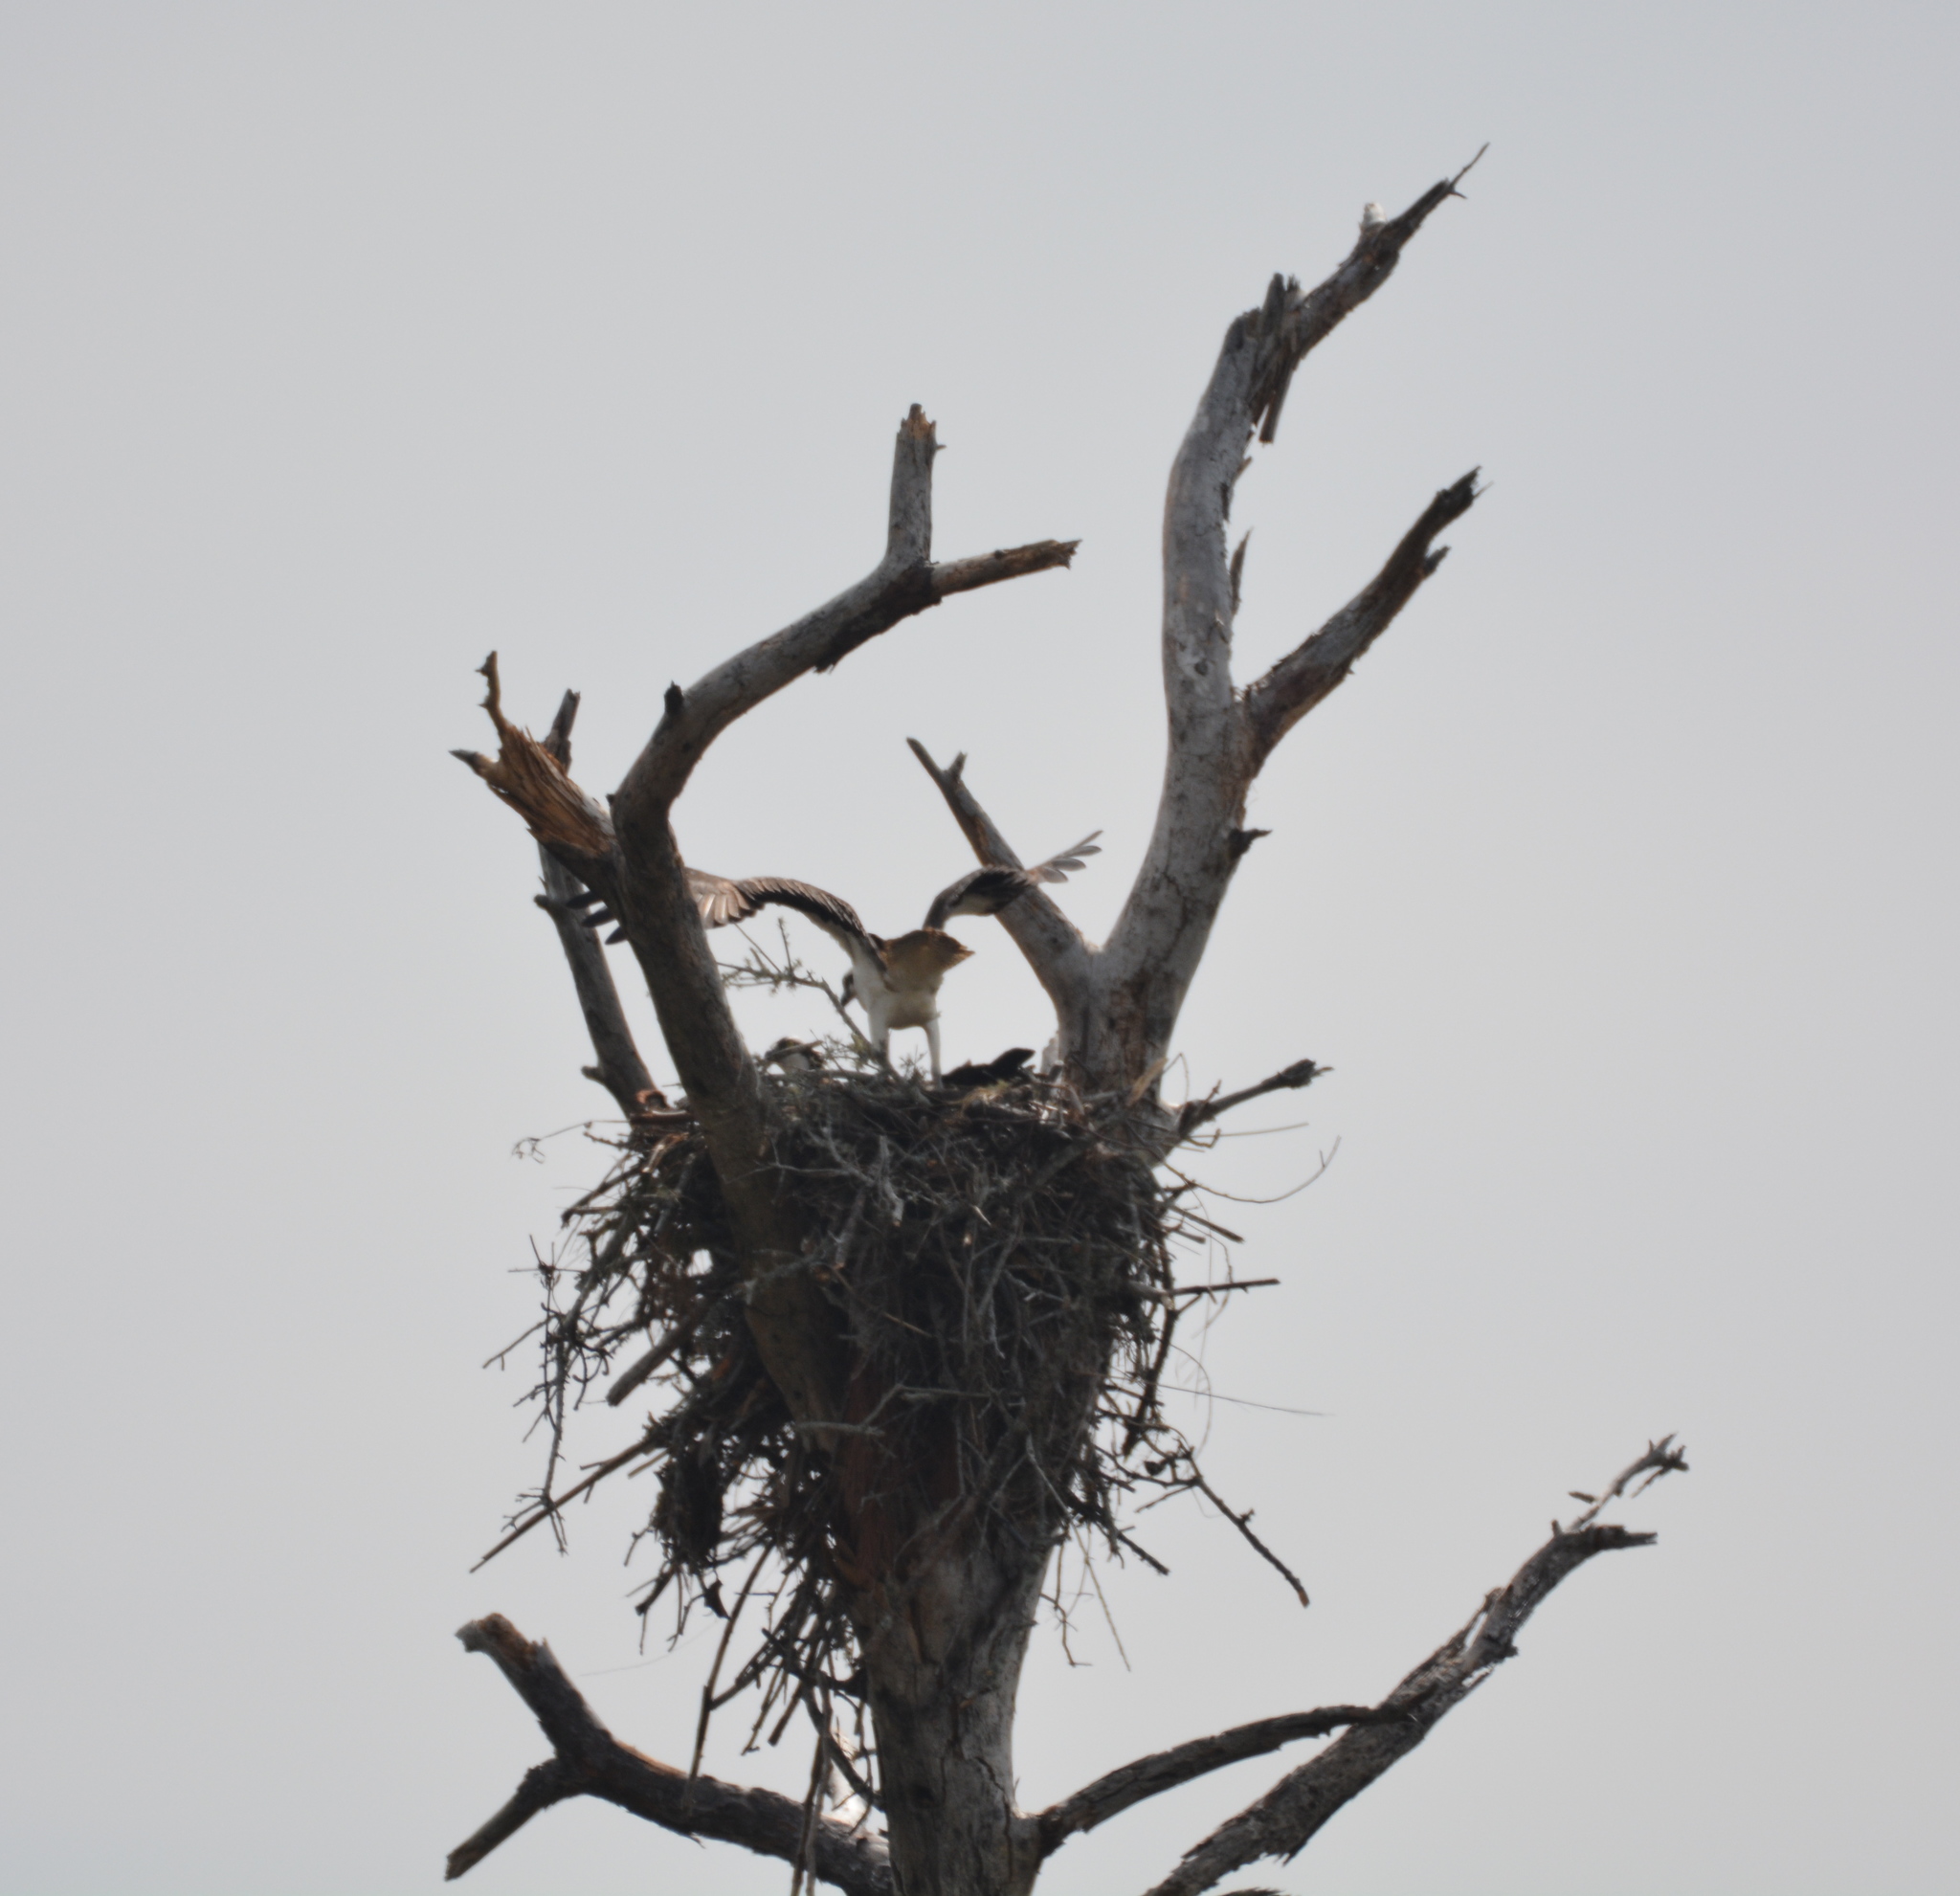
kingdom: Animalia
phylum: Chordata
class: Aves
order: Accipitriformes
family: Pandionidae
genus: Pandion
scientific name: Pandion haliaetus
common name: Osprey
